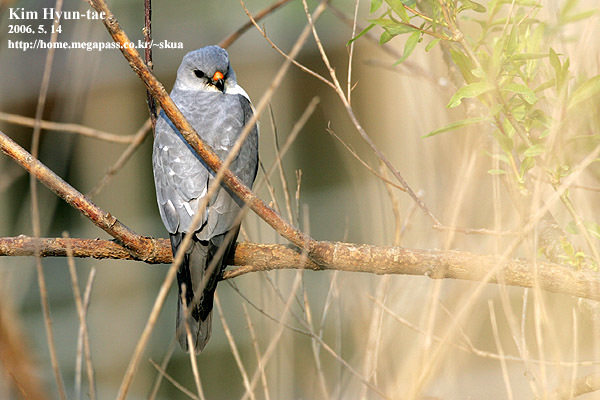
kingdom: Animalia
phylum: Chordata
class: Aves
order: Accipitriformes
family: Accipitridae
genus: Accipiter
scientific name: Accipiter soloensis
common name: Chinese sparrowhawk
